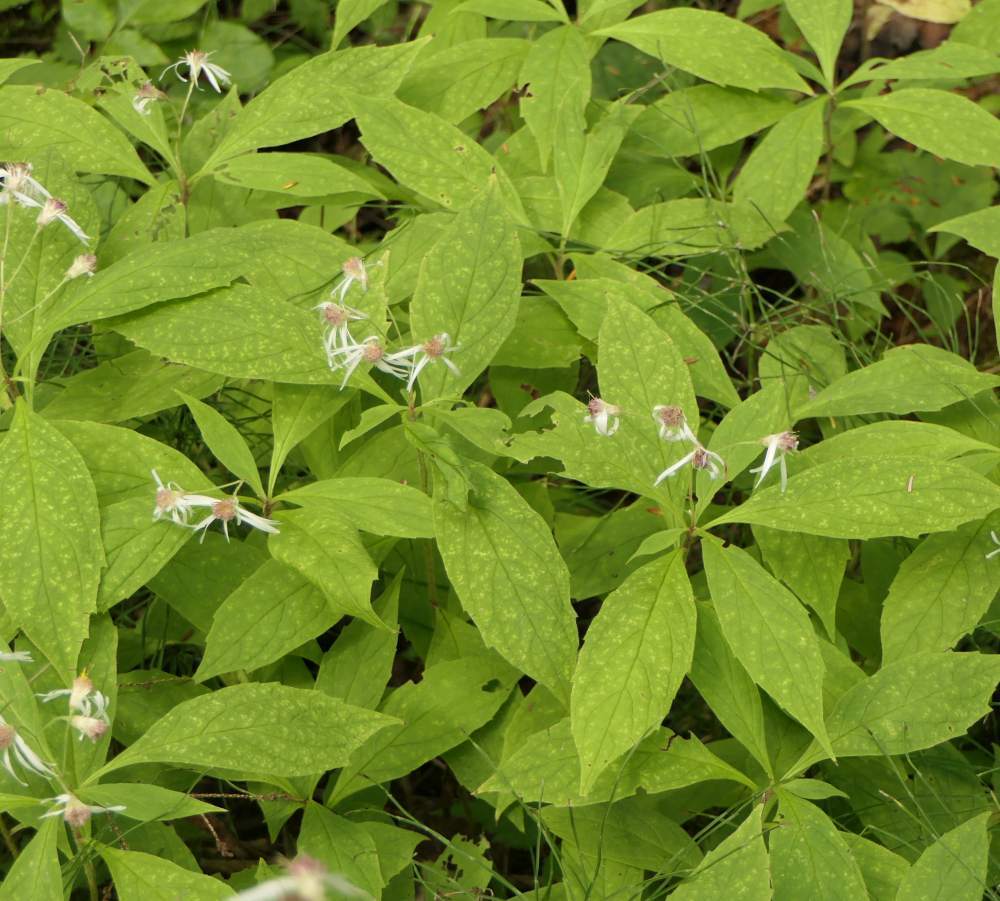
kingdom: Plantae
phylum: Tracheophyta
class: Magnoliopsida
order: Asterales
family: Asteraceae
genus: Oclemena
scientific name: Oclemena acuminata
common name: Mountain aster
